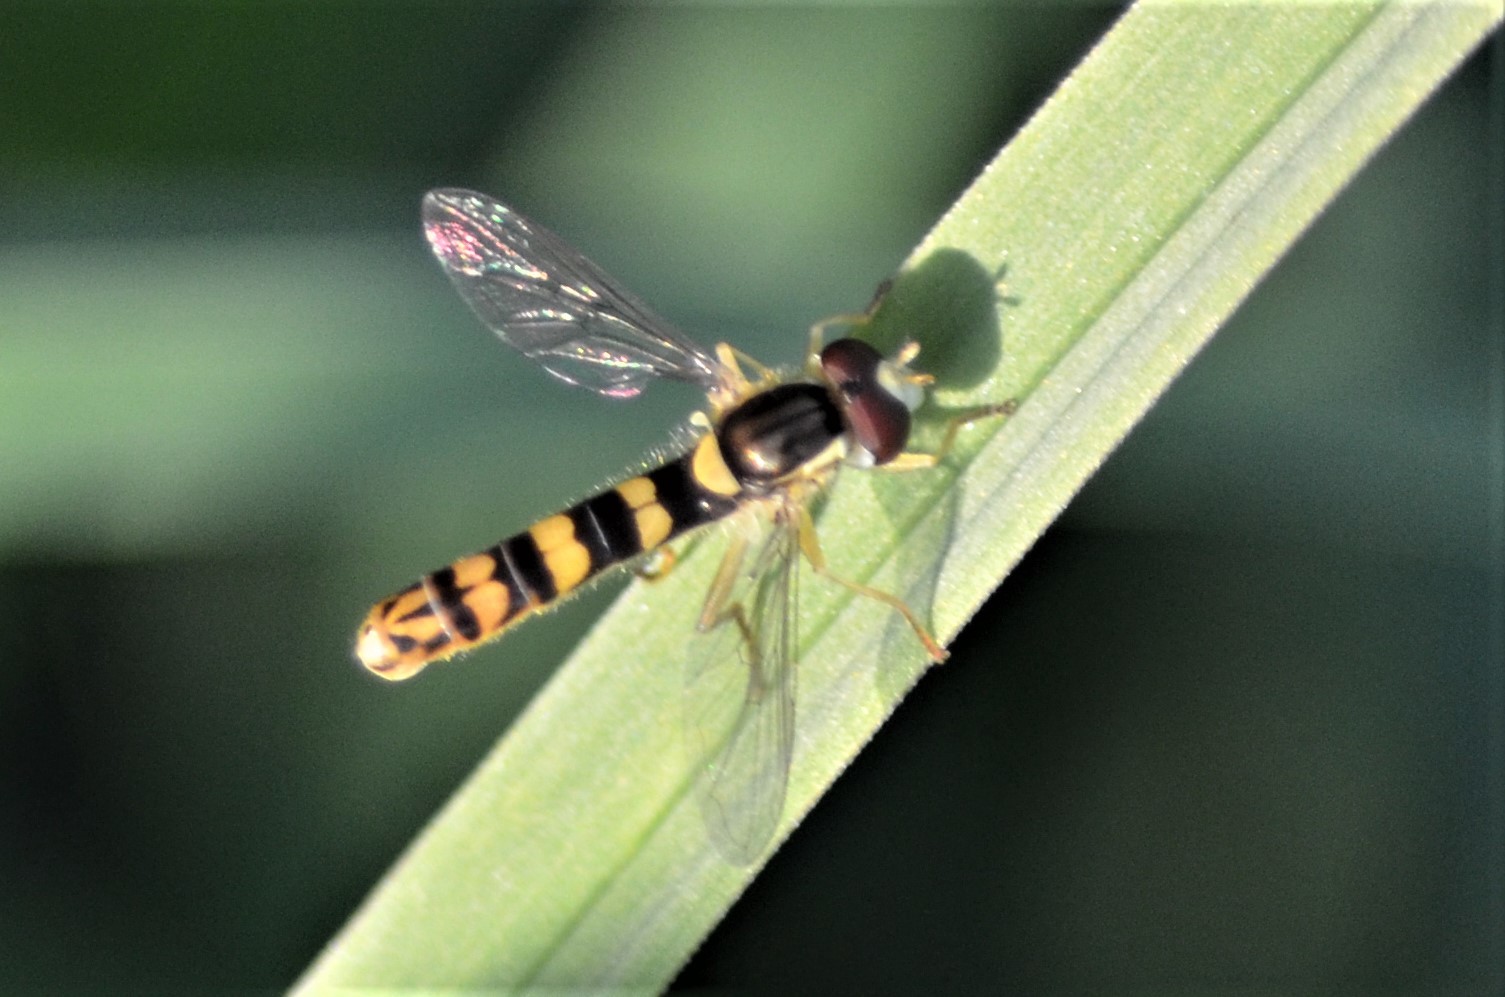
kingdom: Animalia
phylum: Arthropoda
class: Insecta
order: Diptera
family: Syrphidae
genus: Sphaerophoria
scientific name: Sphaerophoria scripta
